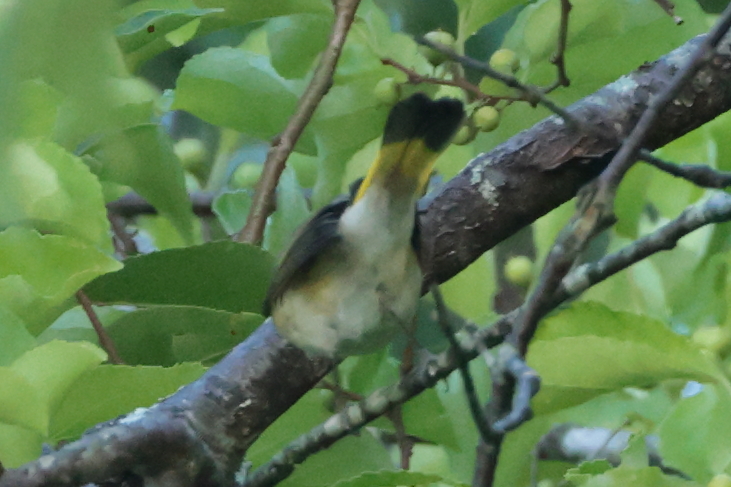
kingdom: Animalia
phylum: Chordata
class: Aves
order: Passeriformes
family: Parulidae
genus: Setophaga
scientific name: Setophaga ruticilla
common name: American redstart
